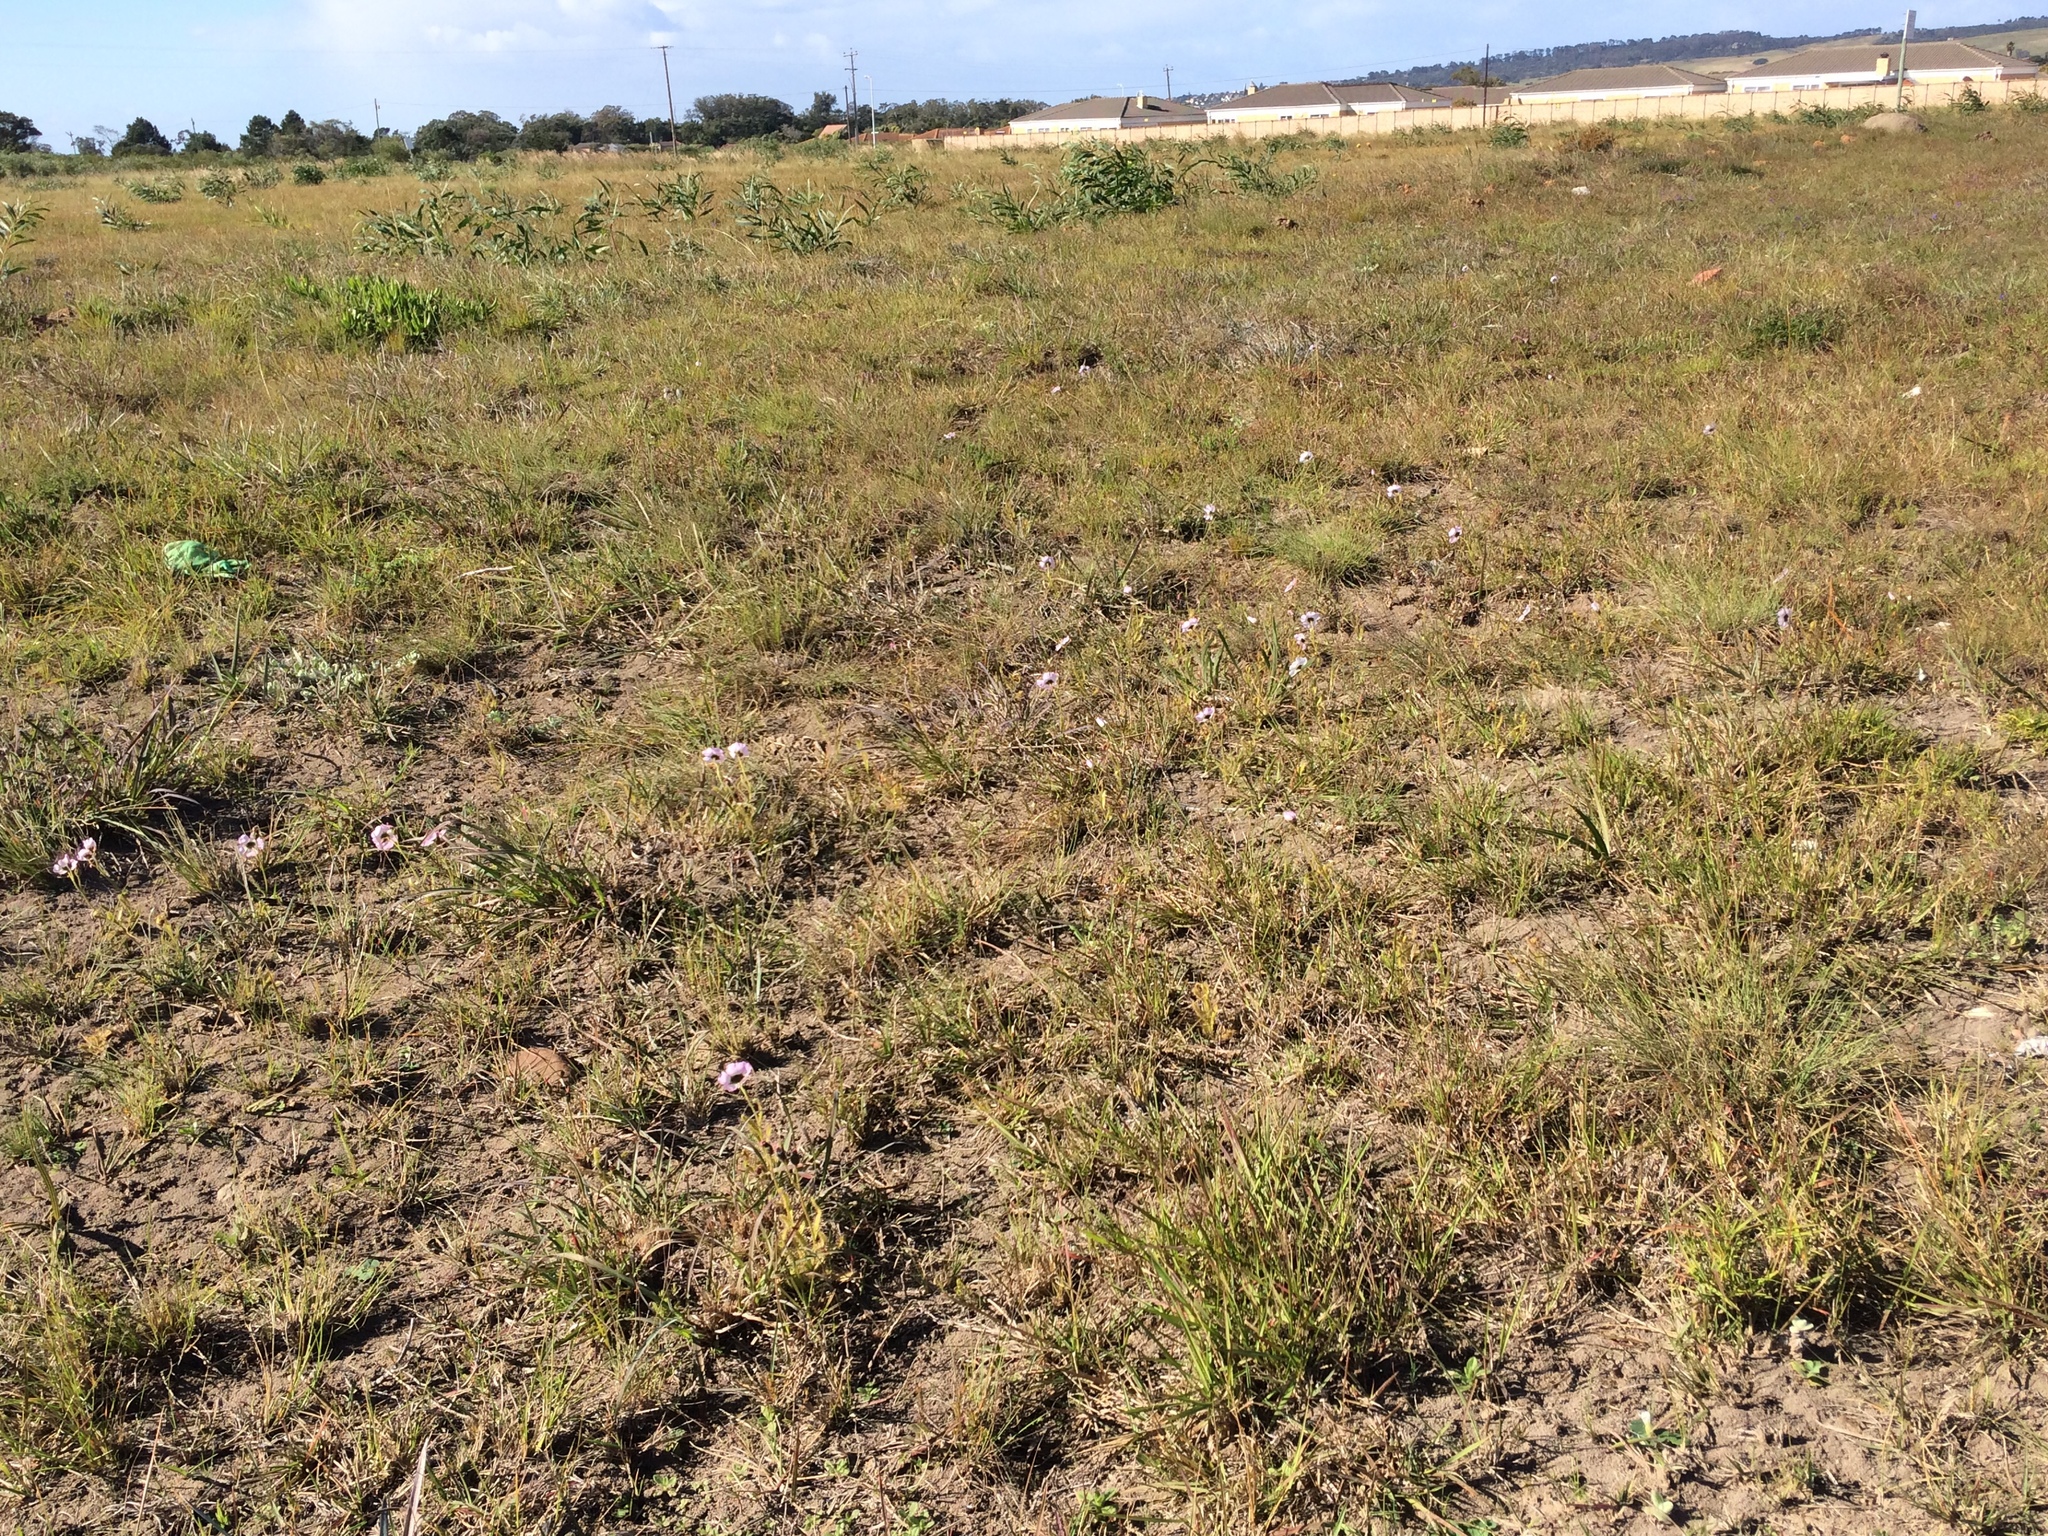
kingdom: Plantae
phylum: Tracheophyta
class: Magnoliopsida
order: Caryophyllales
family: Droseraceae
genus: Drosera
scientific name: Drosera cistiflora
